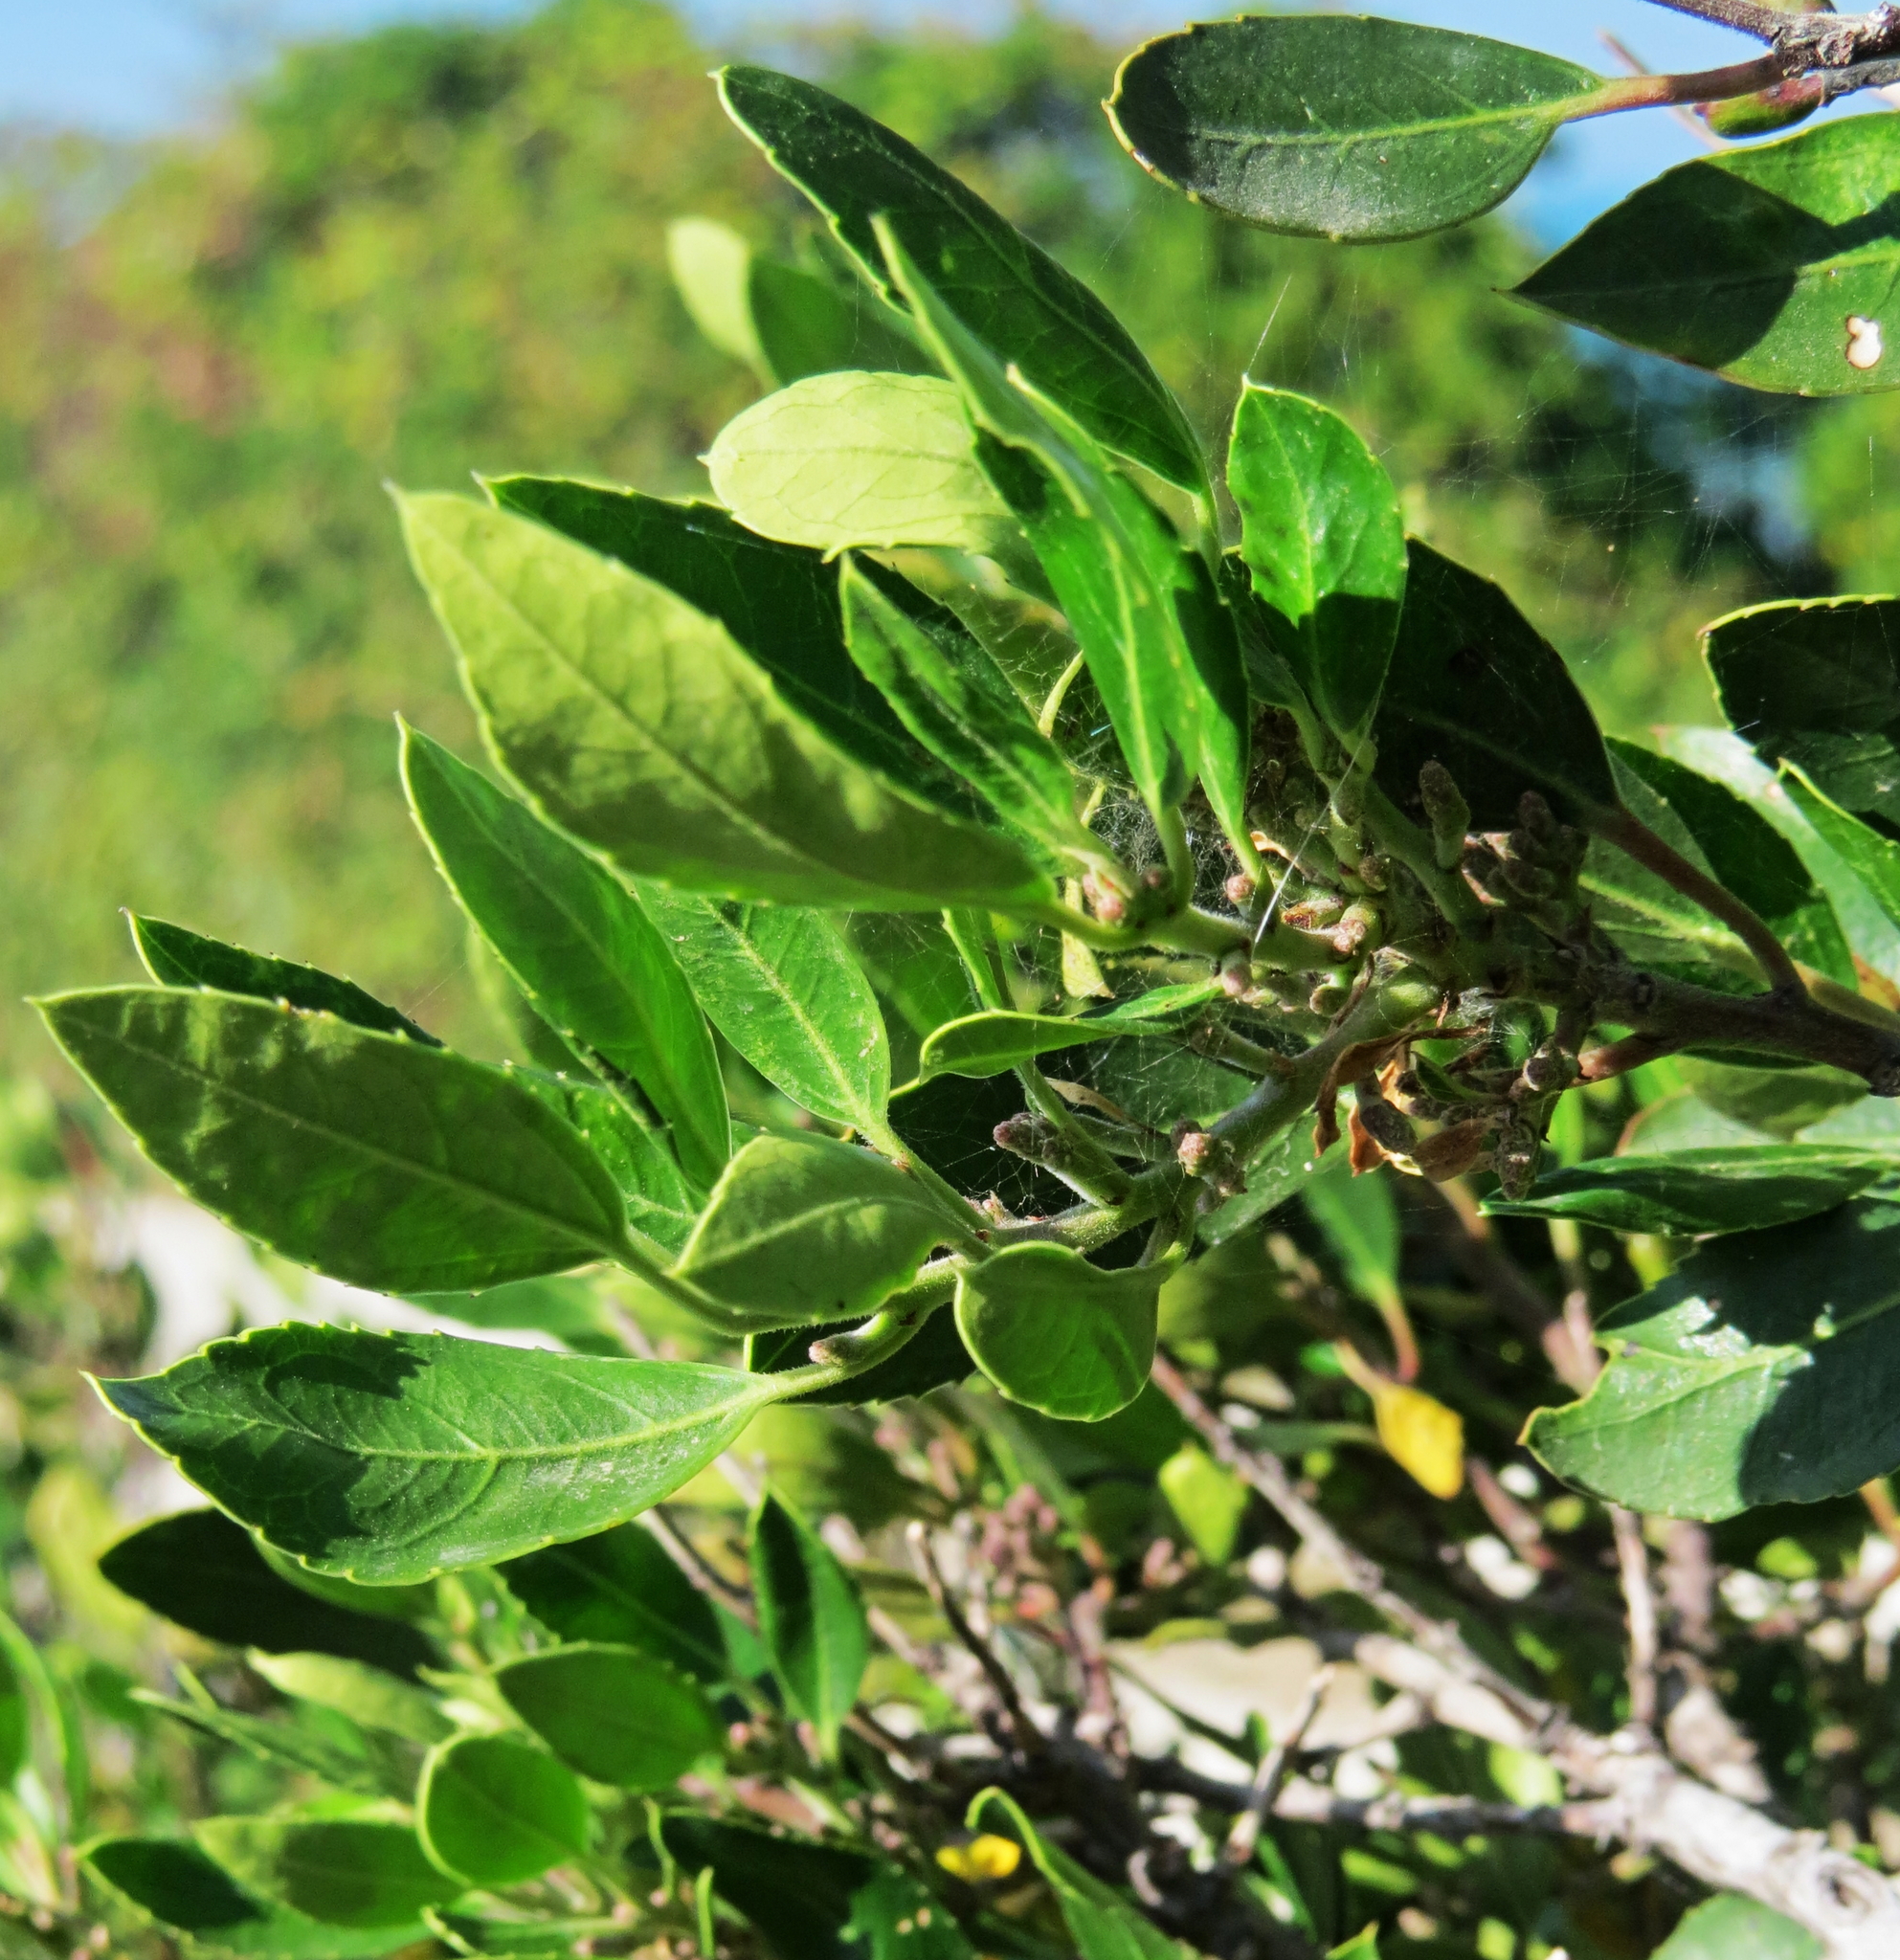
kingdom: Plantae
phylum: Tracheophyta
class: Magnoliopsida
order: Rosales
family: Rhamnaceae
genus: Rhamnus
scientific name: Rhamnus alaternus
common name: Mediterranean buckthorn
